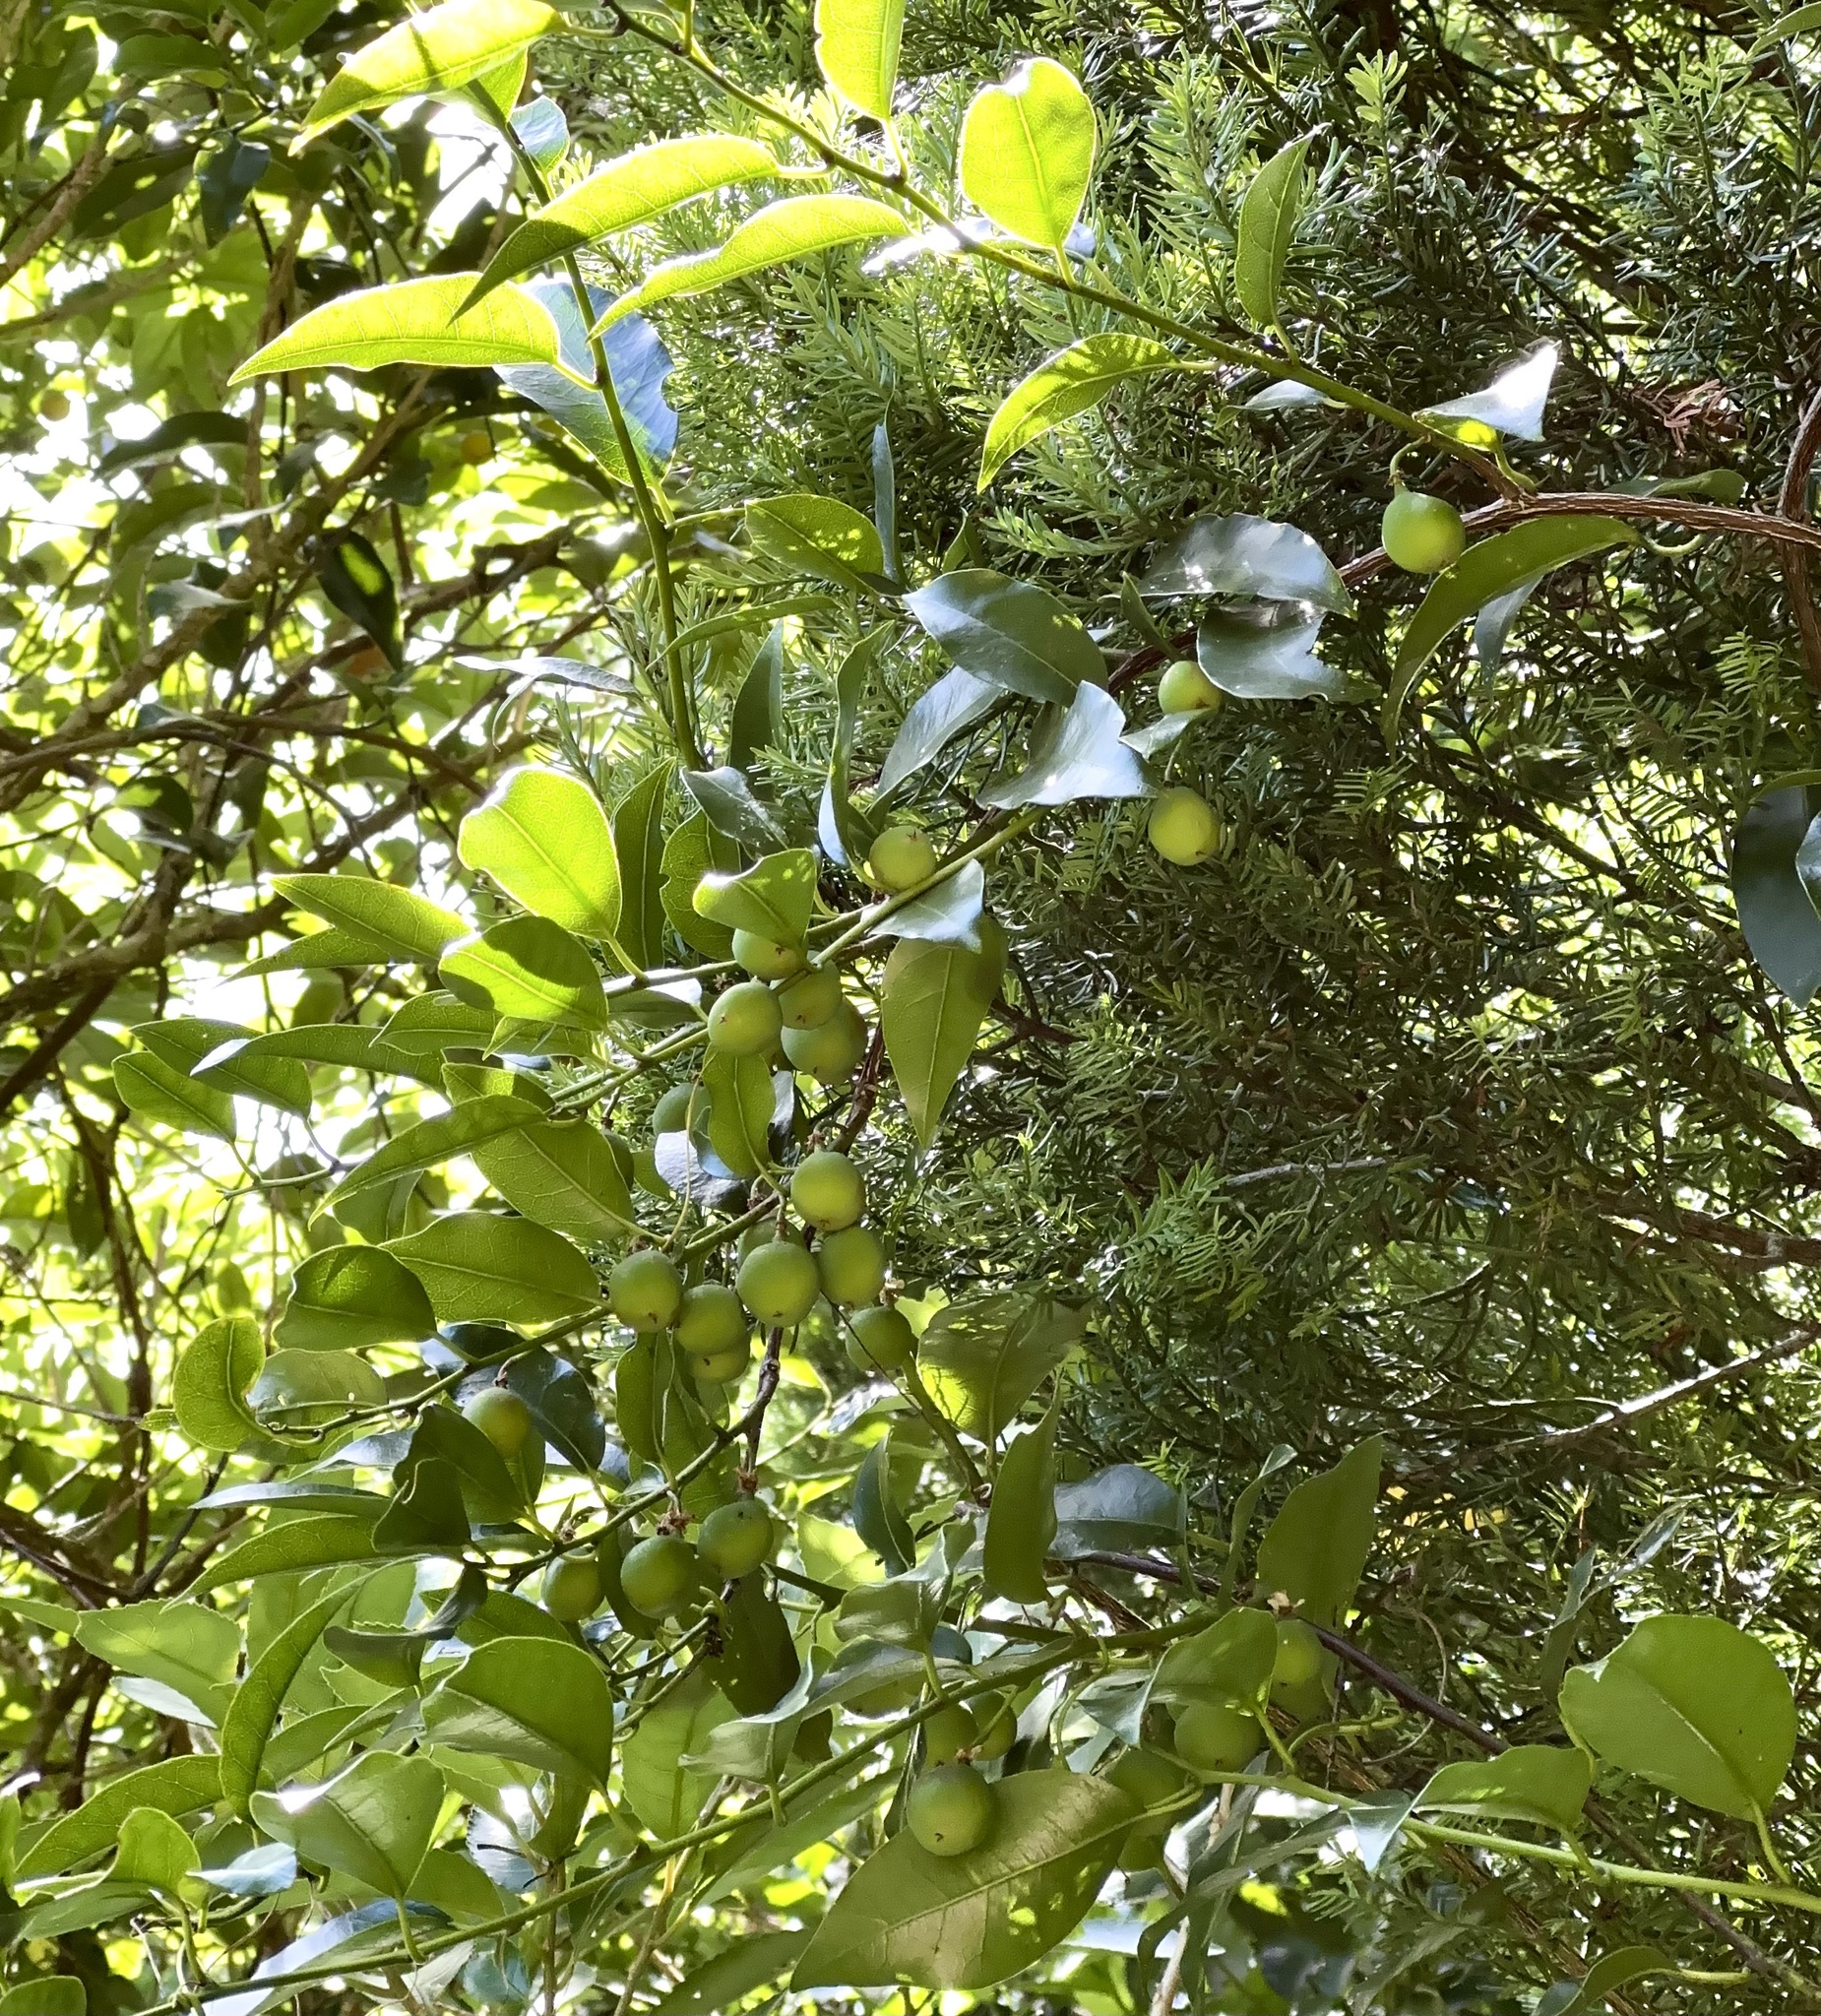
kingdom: Plantae
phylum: Tracheophyta
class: Magnoliopsida
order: Malpighiales
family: Passifloraceae
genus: Passiflora
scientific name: Passiflora tetrandra
